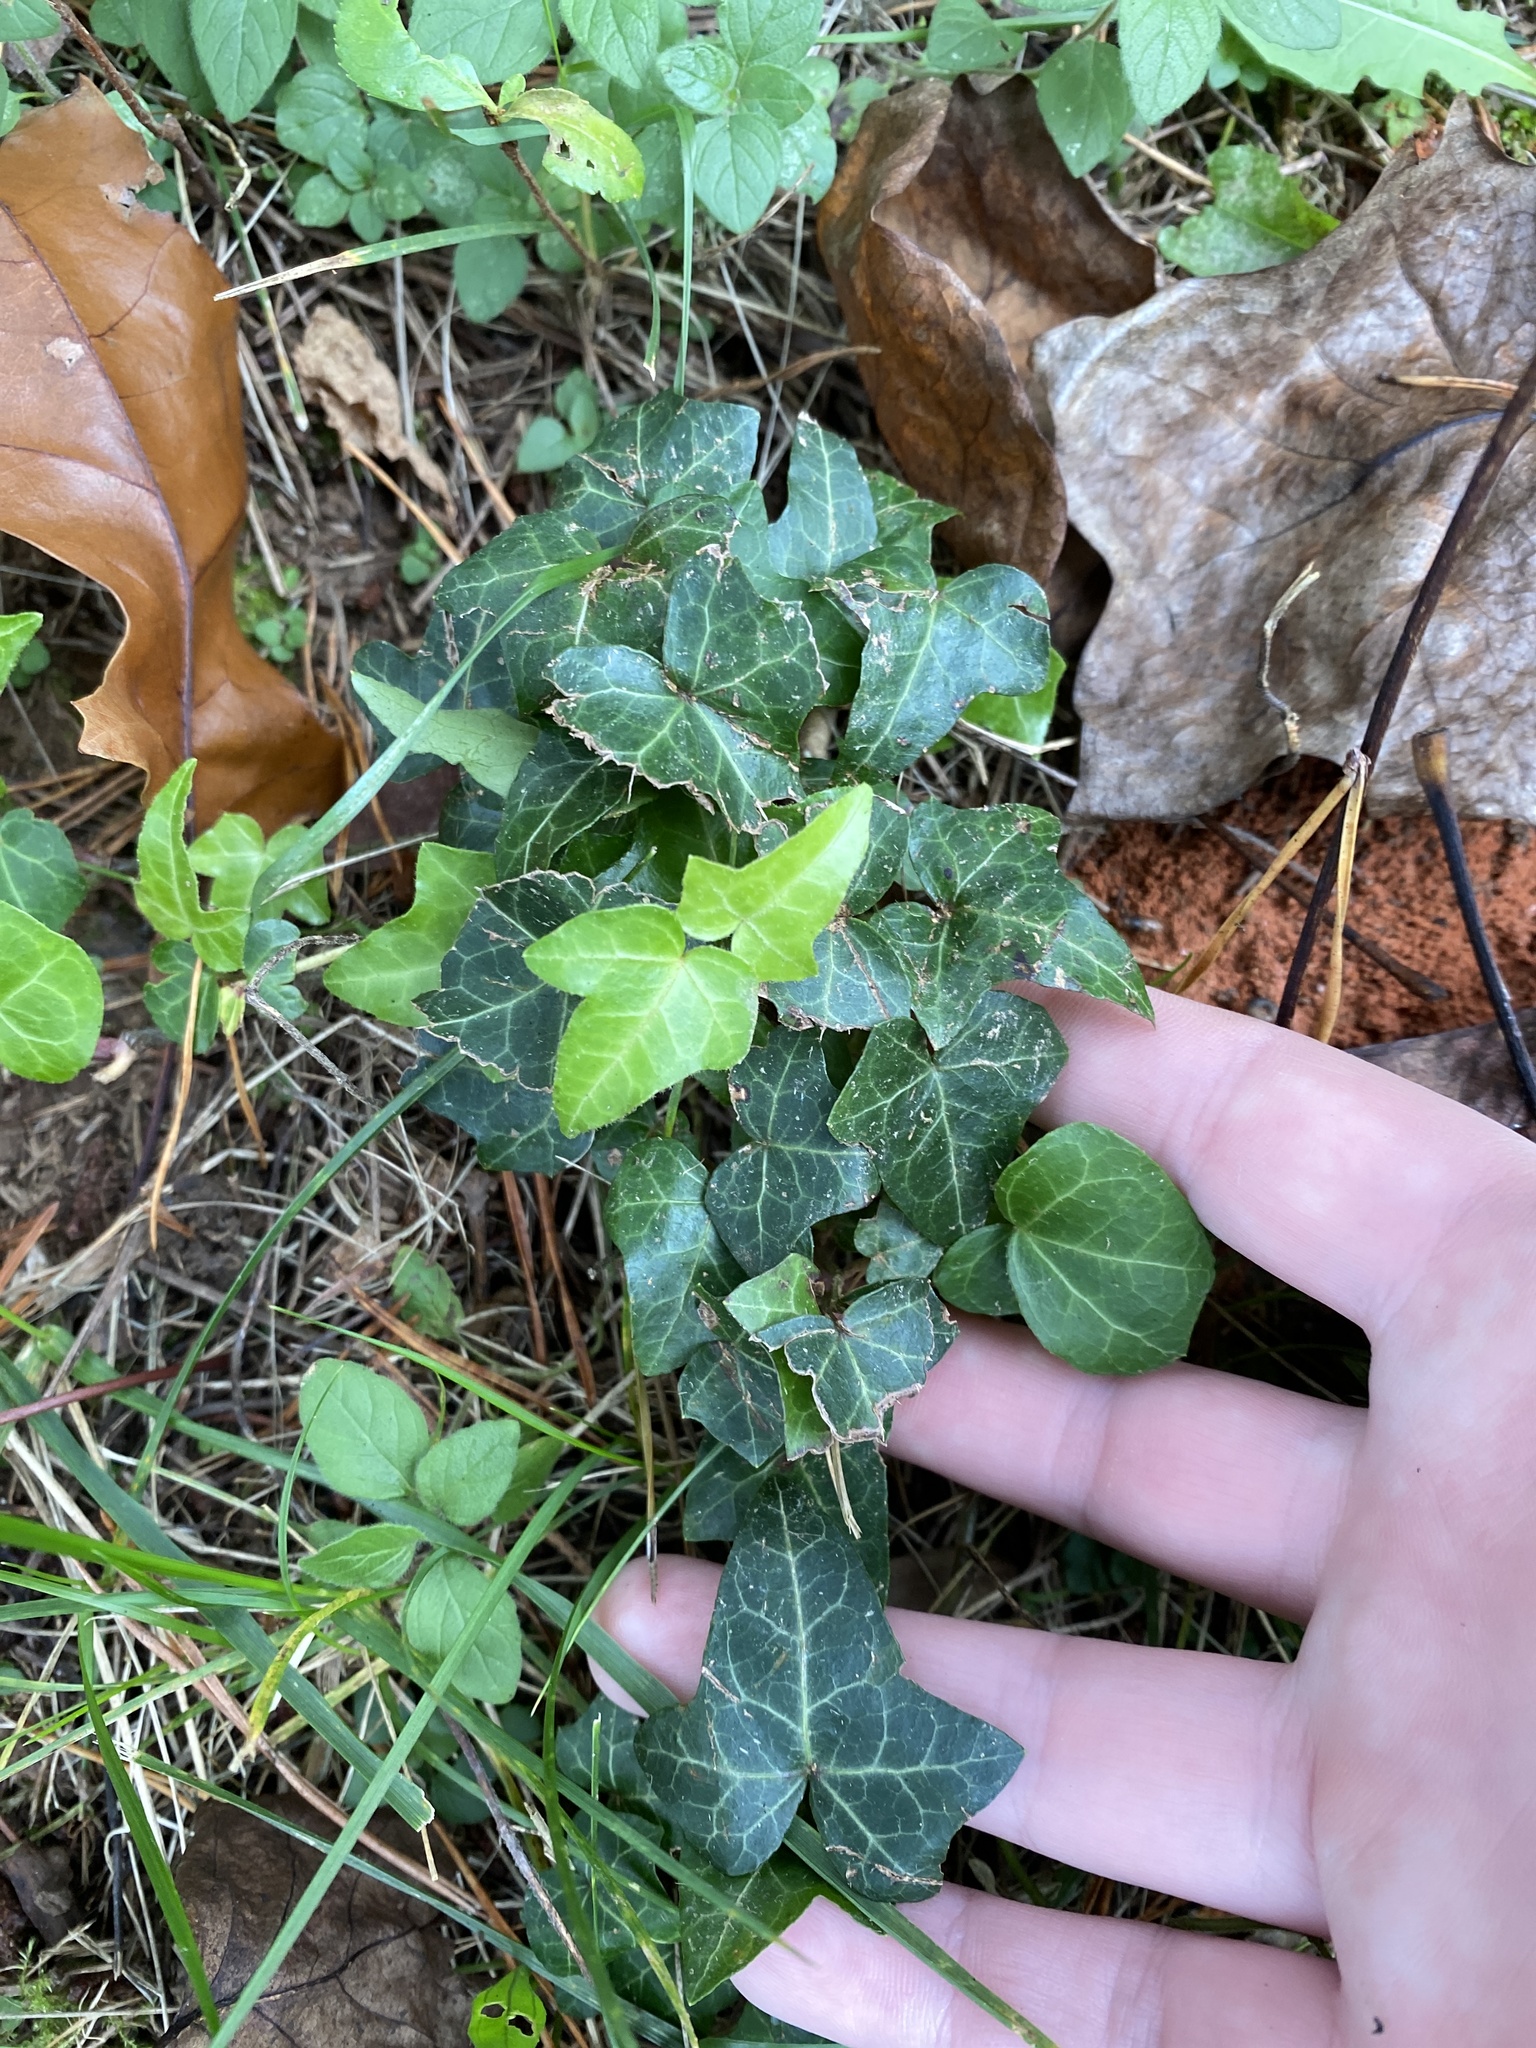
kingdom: Plantae
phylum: Tracheophyta
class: Magnoliopsida
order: Apiales
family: Araliaceae
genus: Hedera
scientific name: Hedera helix
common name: Ivy
